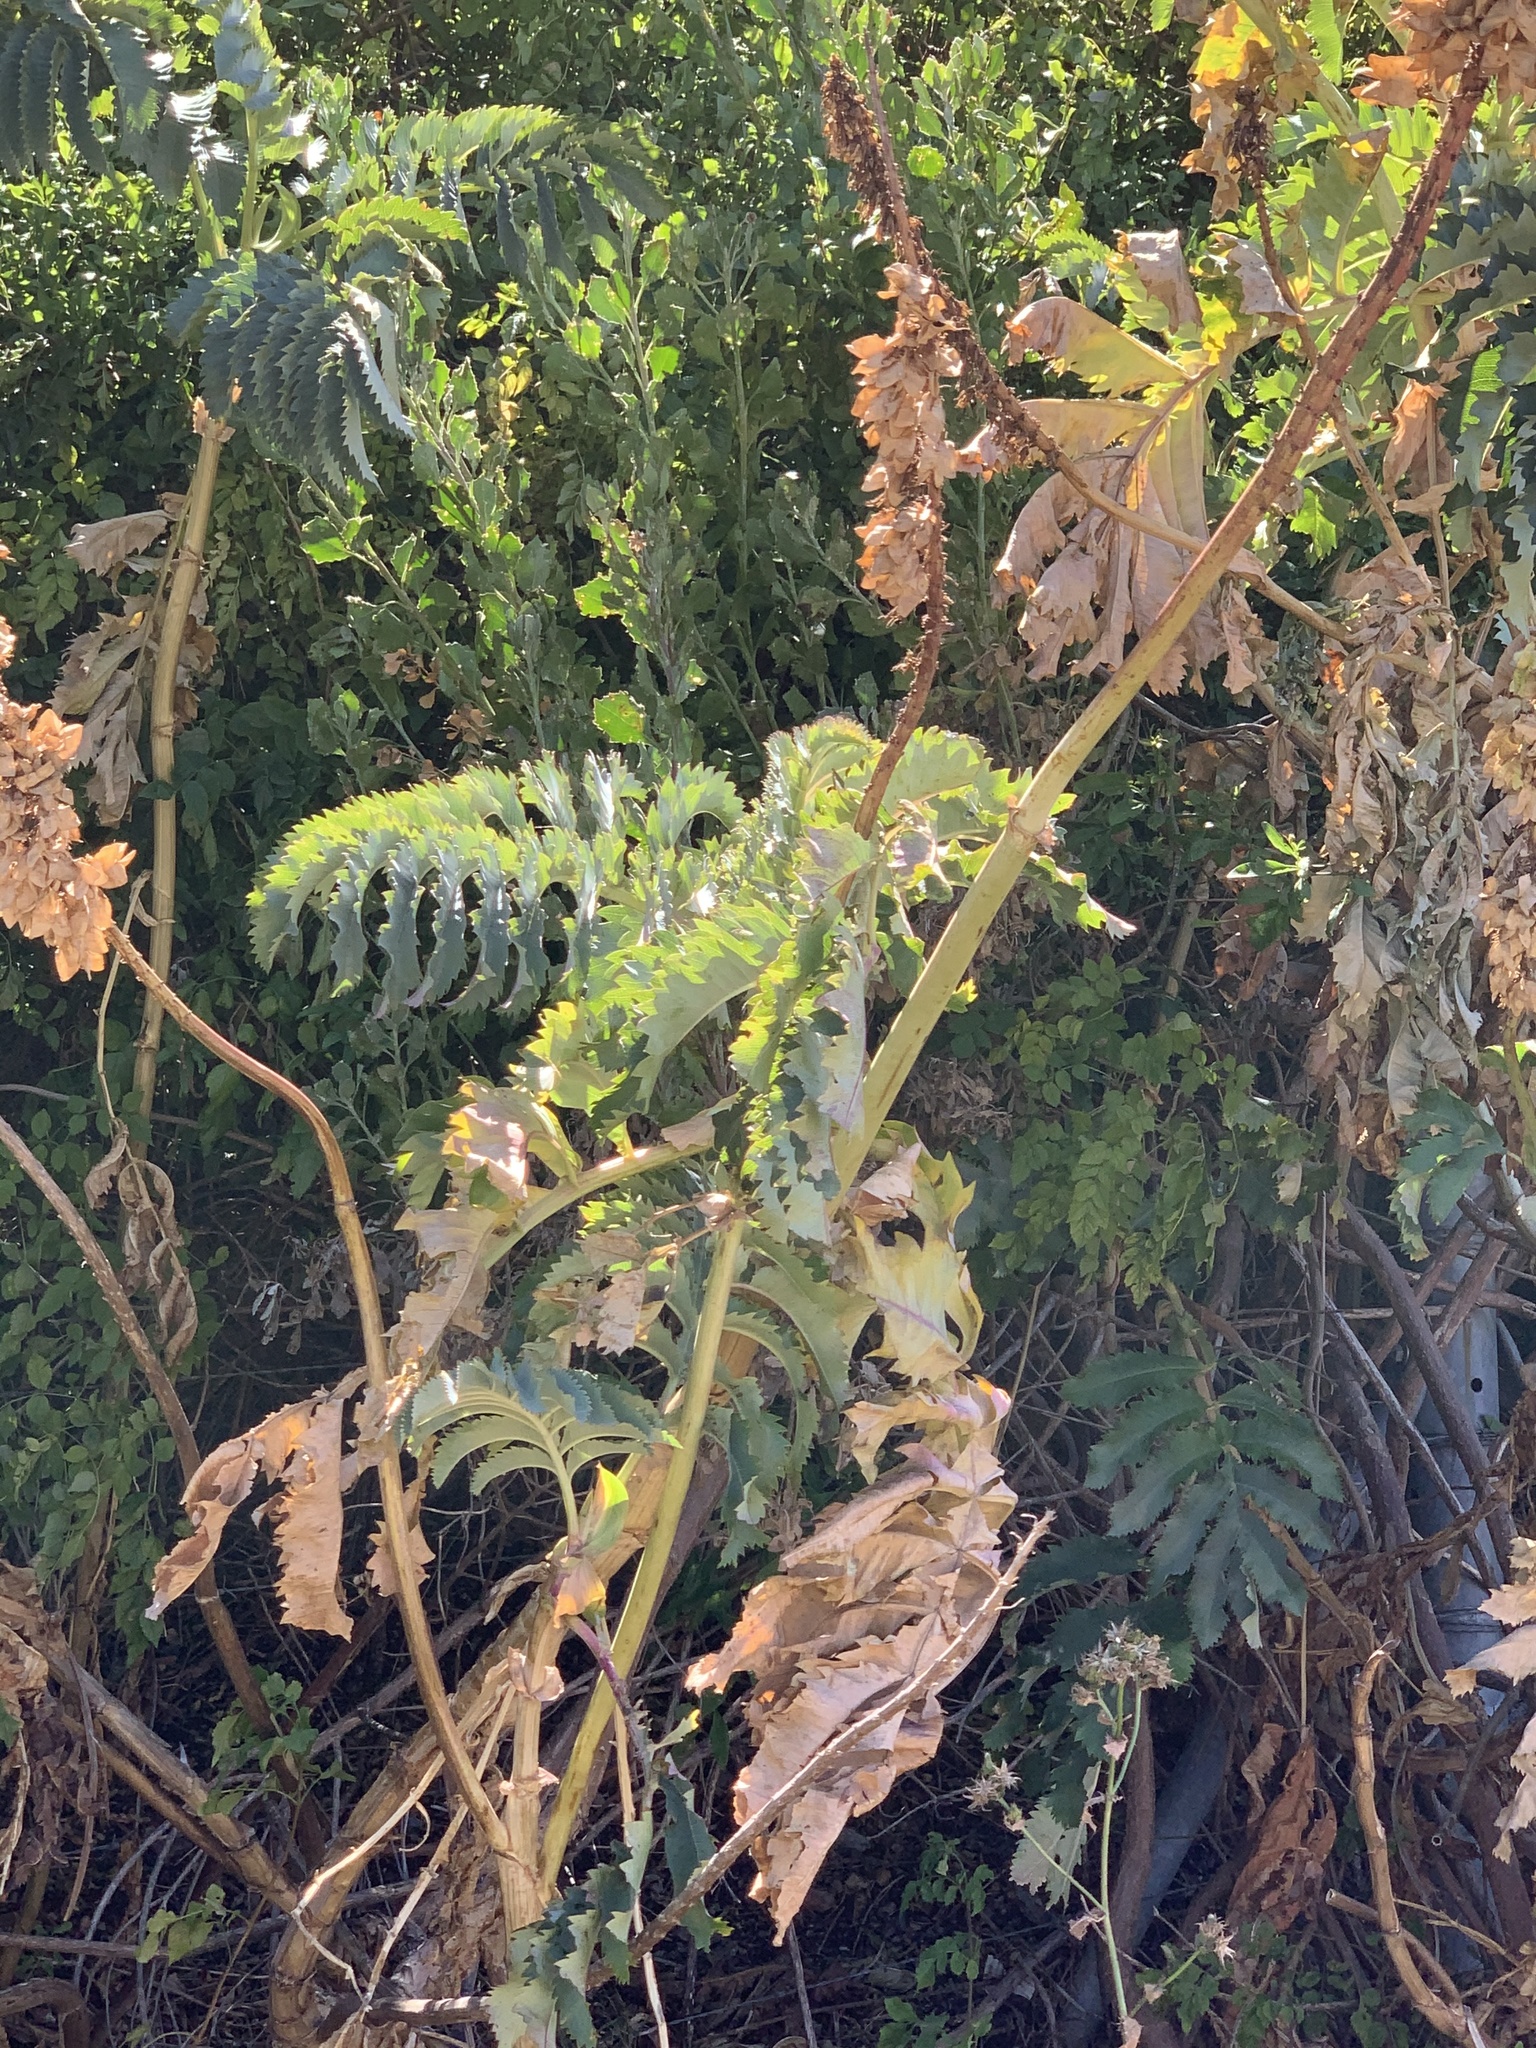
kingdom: Plantae
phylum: Tracheophyta
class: Magnoliopsida
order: Geraniales
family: Melianthaceae
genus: Melianthus
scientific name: Melianthus major
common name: Honey-flower
